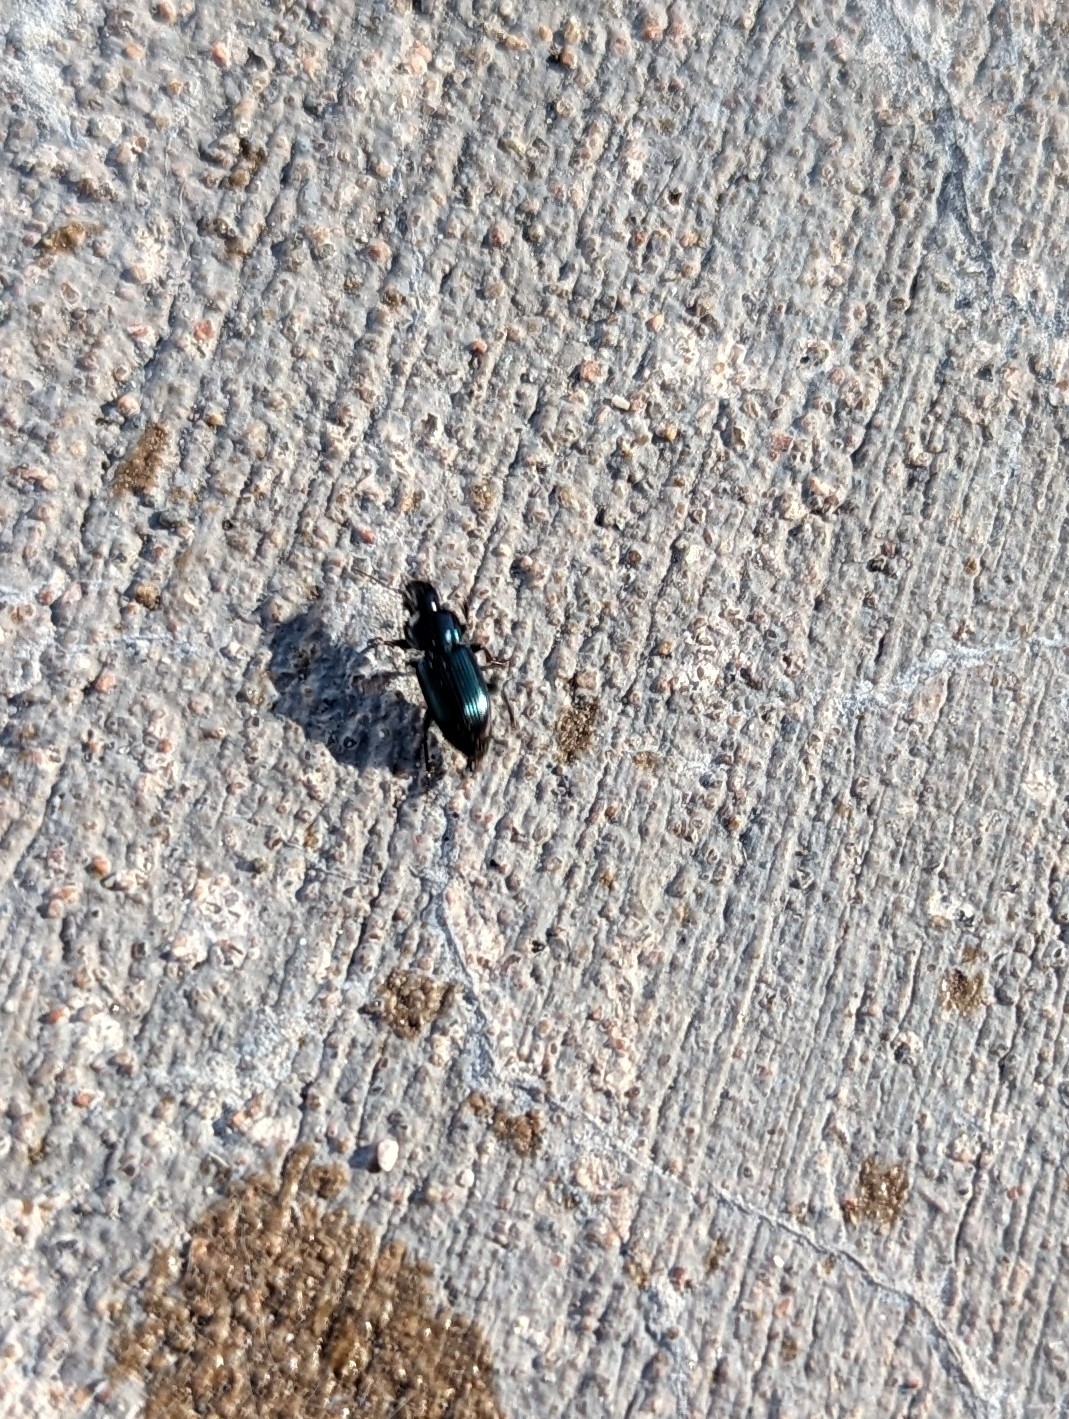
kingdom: Animalia
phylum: Arthropoda
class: Insecta
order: Coleoptera
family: Carabidae
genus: Harpalus
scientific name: Harpalus amputatus
